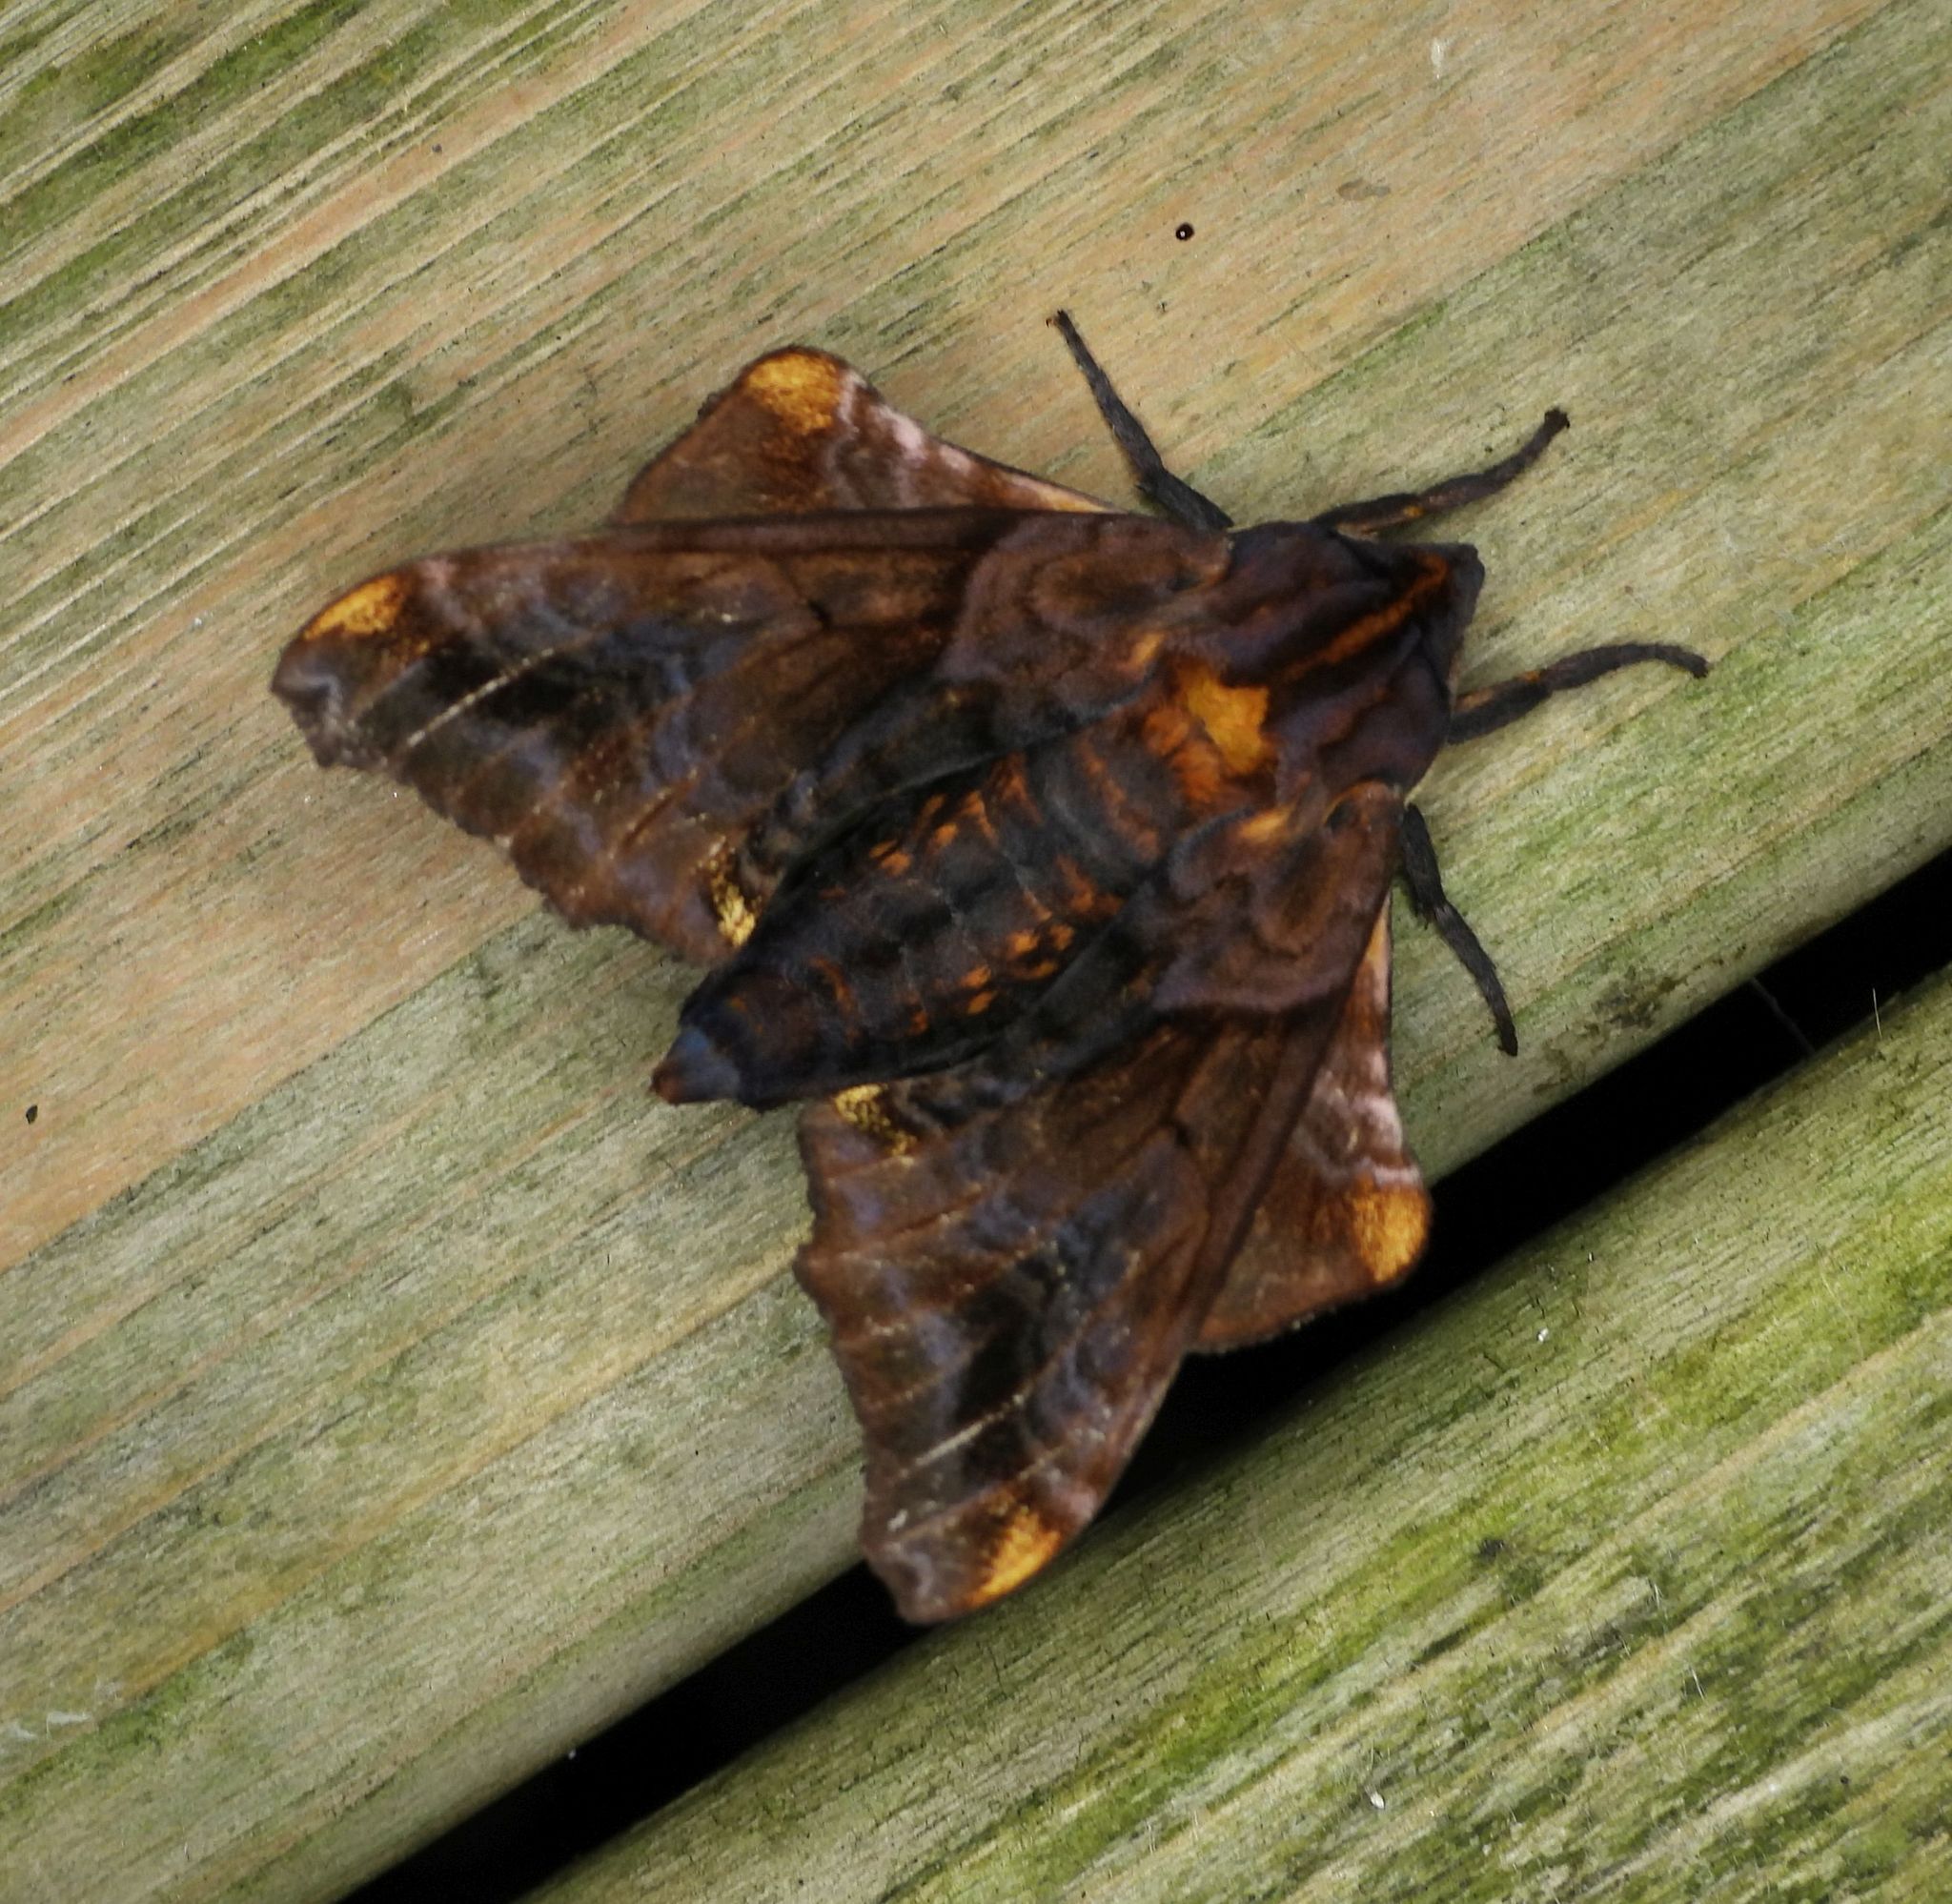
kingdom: Animalia
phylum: Arthropoda
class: Insecta
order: Lepidoptera
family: Sphingidae
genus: Paonias
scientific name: Paonias myops
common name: Small-eyed sphinx
